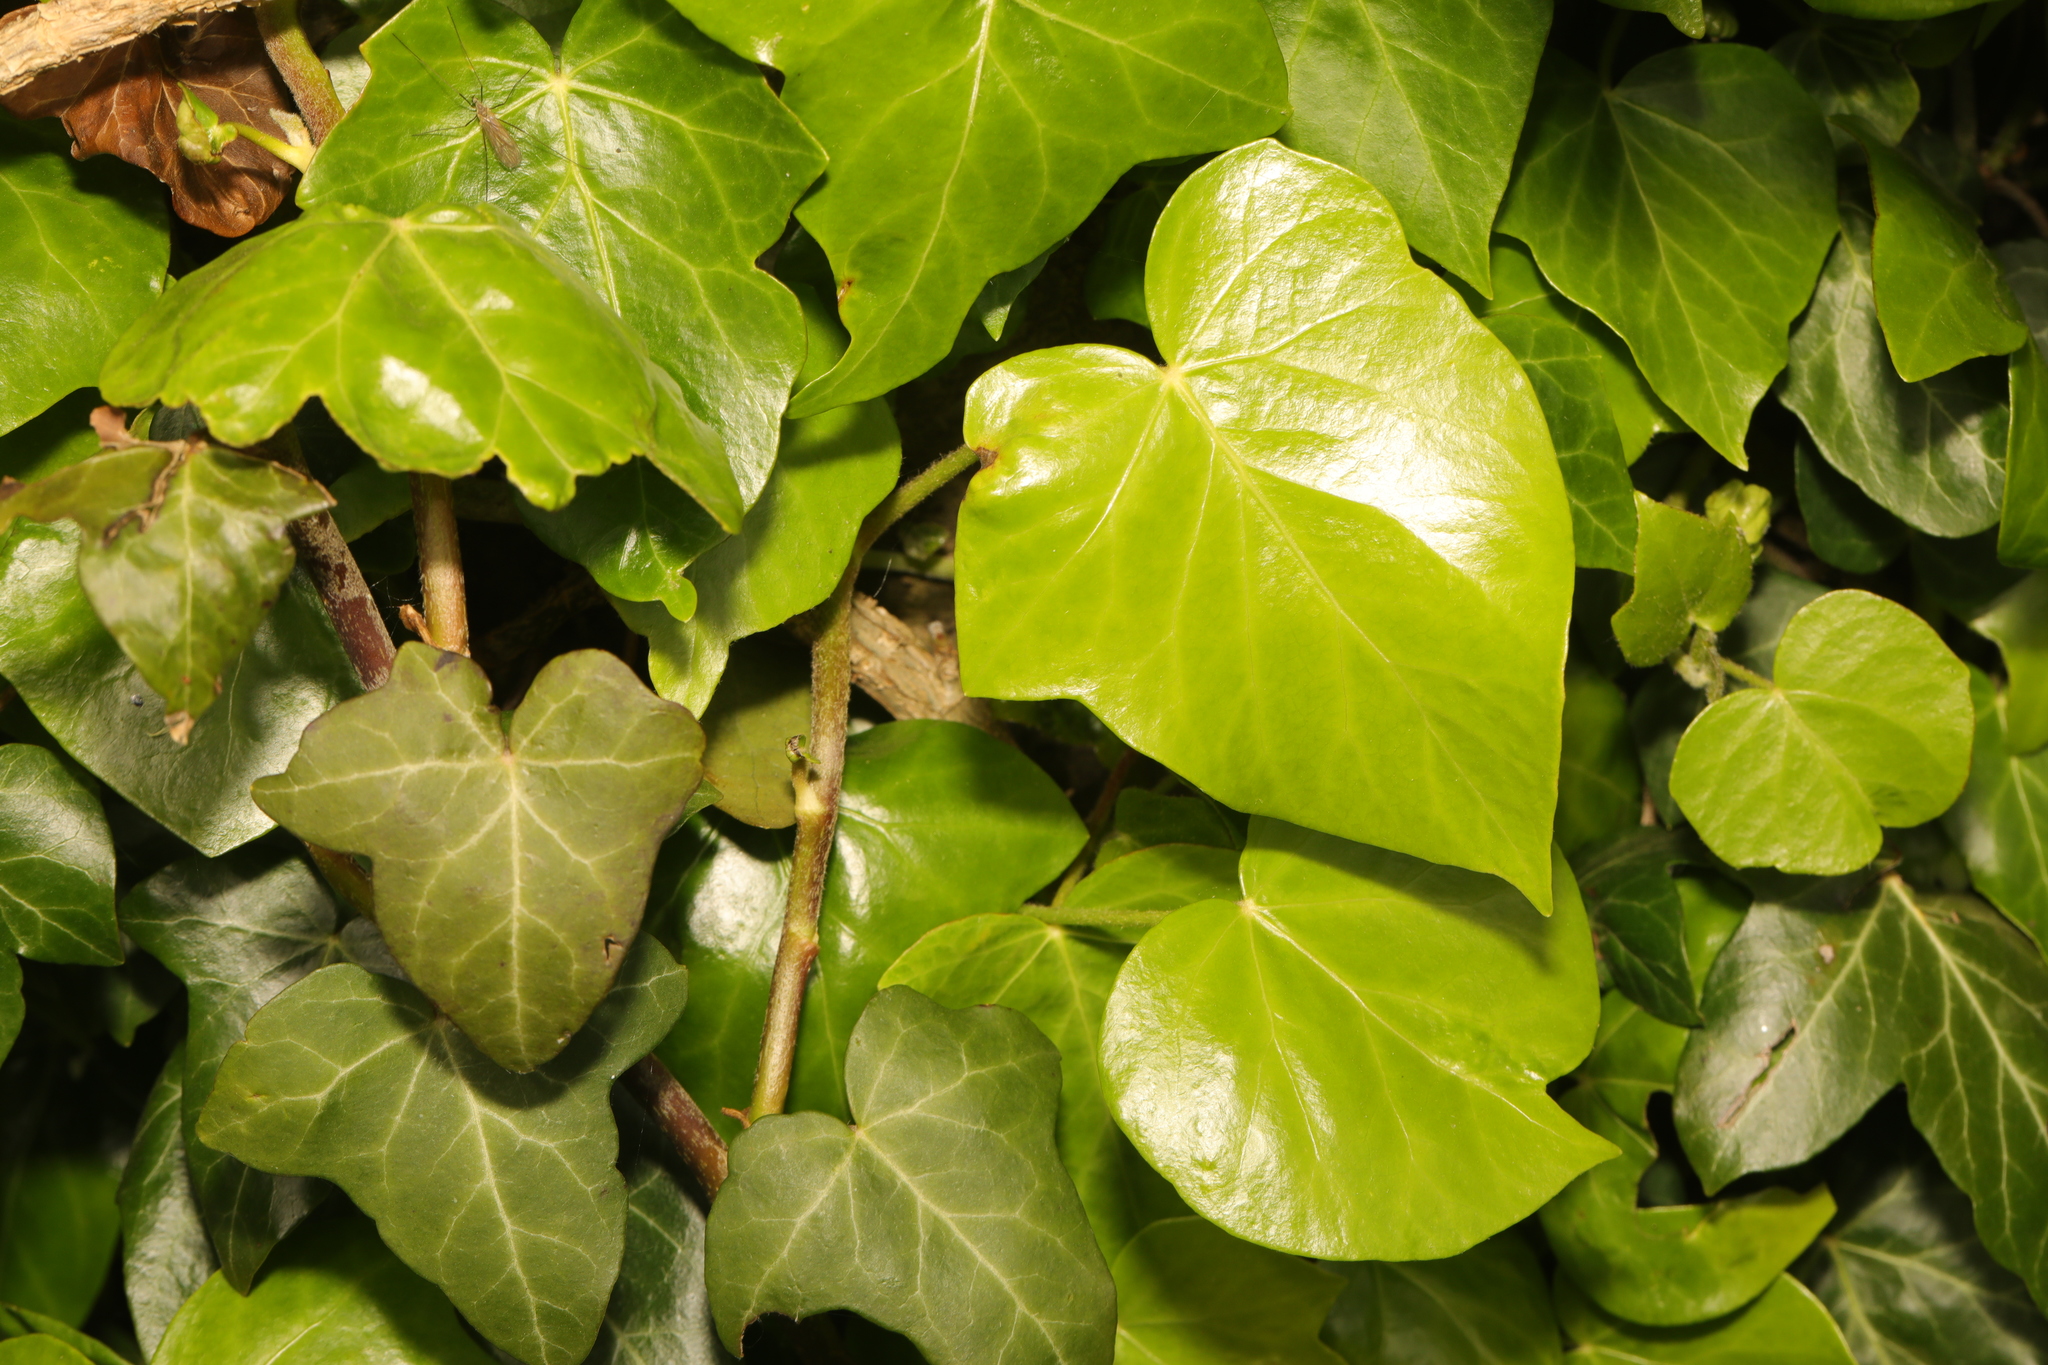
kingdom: Plantae
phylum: Tracheophyta
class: Magnoliopsida
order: Apiales
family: Araliaceae
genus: Hedera
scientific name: Hedera helix
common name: Ivy
